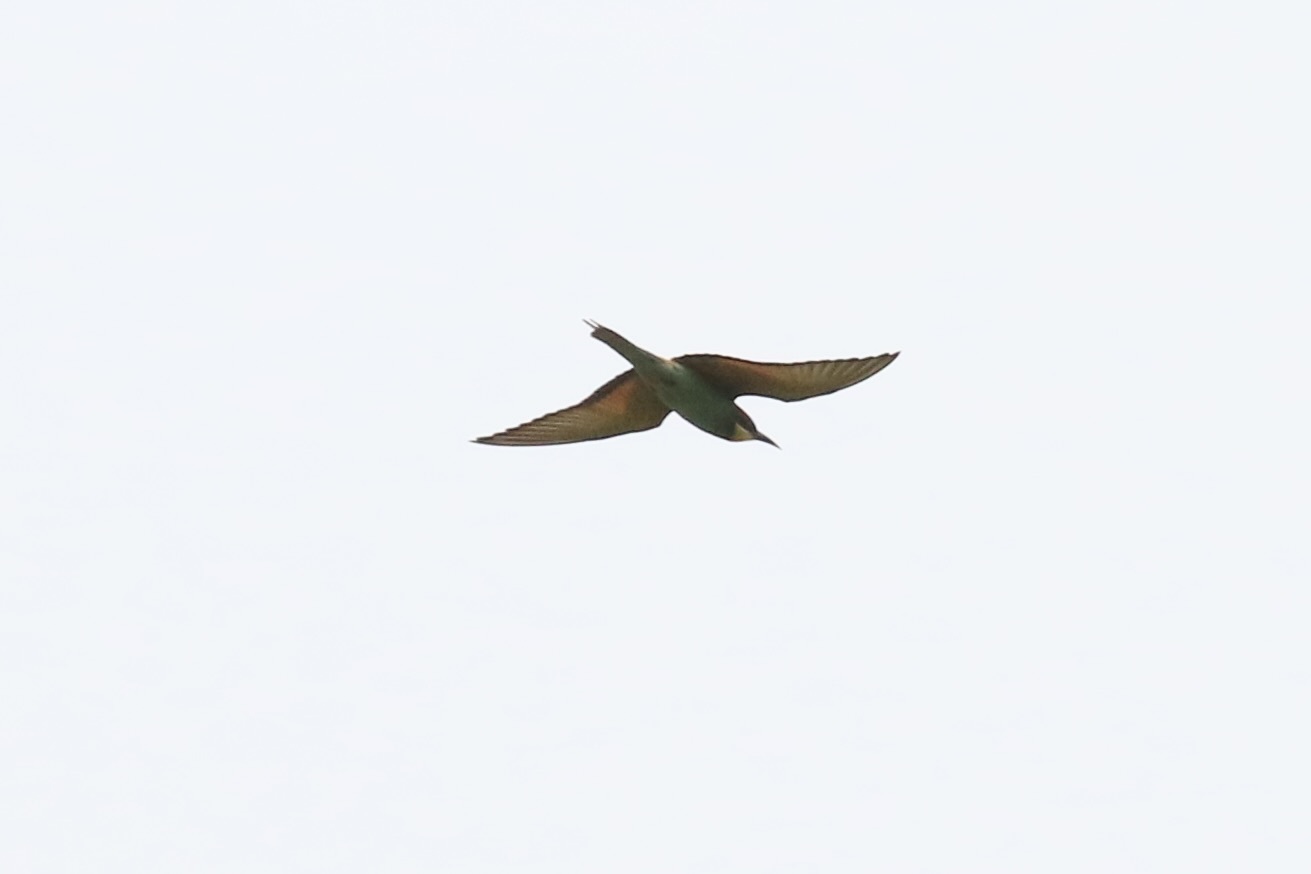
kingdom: Animalia
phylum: Chordata
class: Aves
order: Coraciiformes
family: Meropidae
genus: Merops
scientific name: Merops apiaster
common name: European bee-eater
